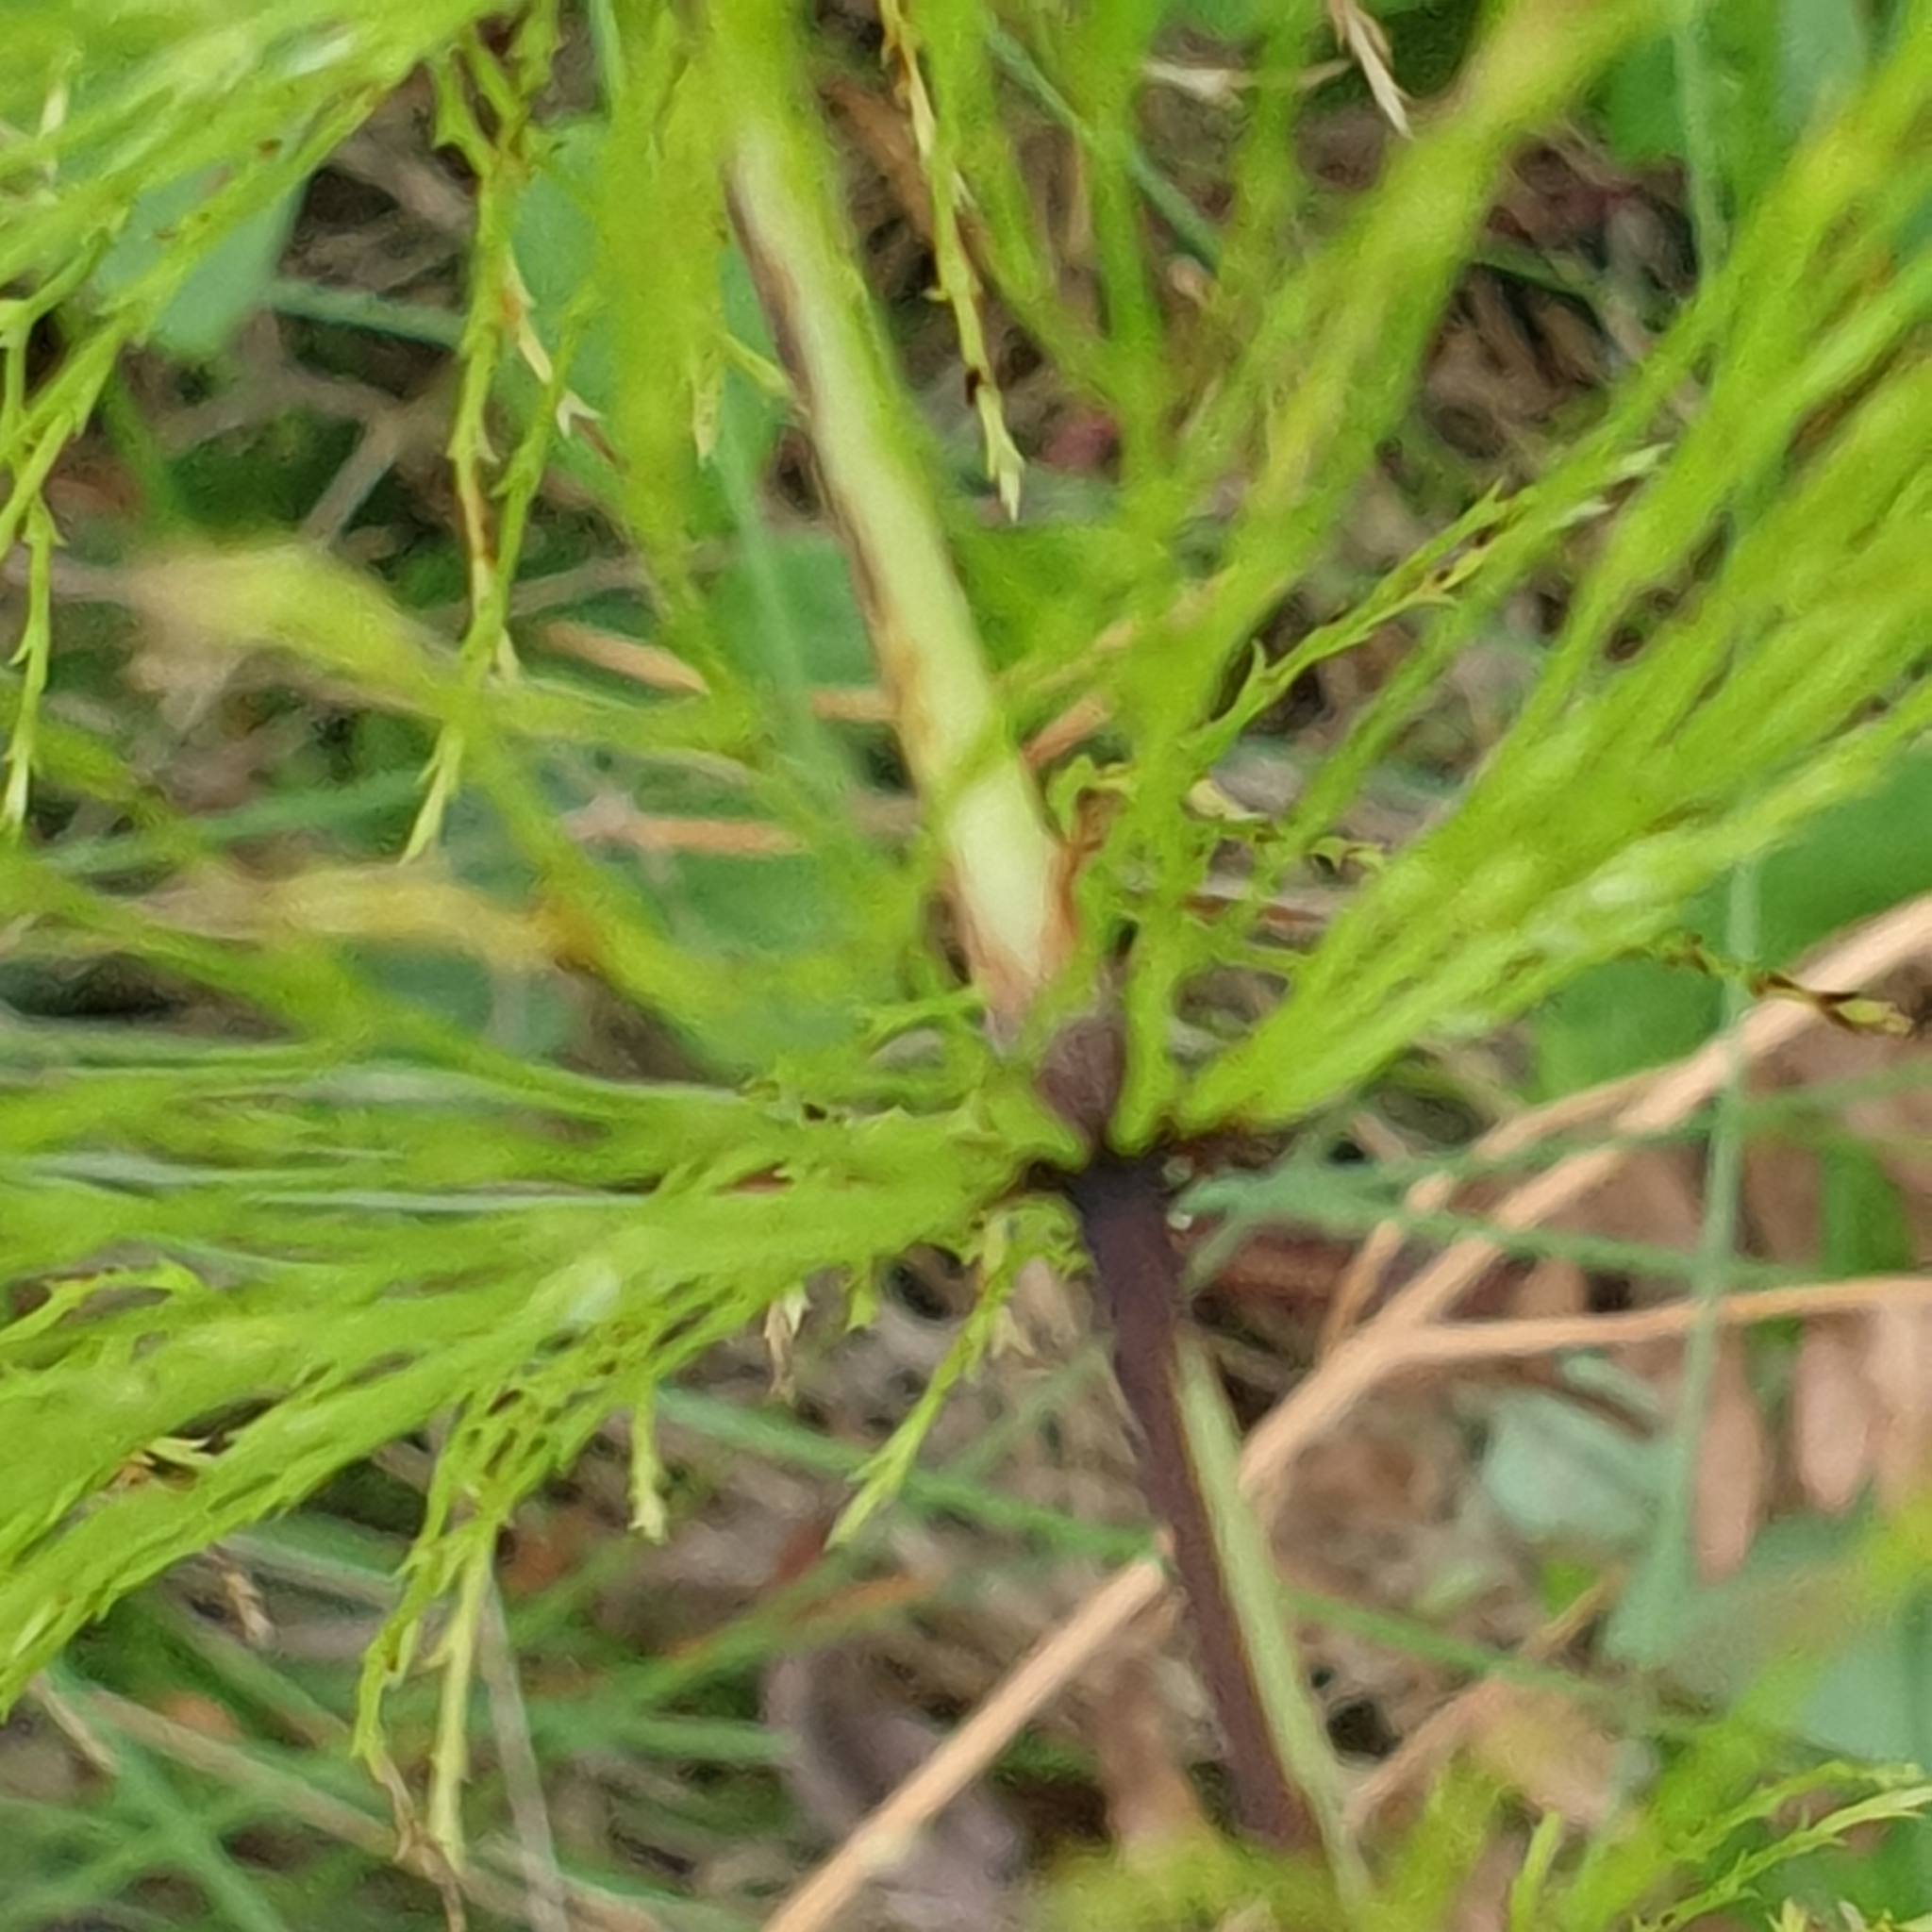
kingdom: Plantae
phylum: Tracheophyta
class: Polypodiopsida
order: Equisetales
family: Equisetaceae
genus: Equisetum
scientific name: Equisetum sylvaticum
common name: Wood horsetail
